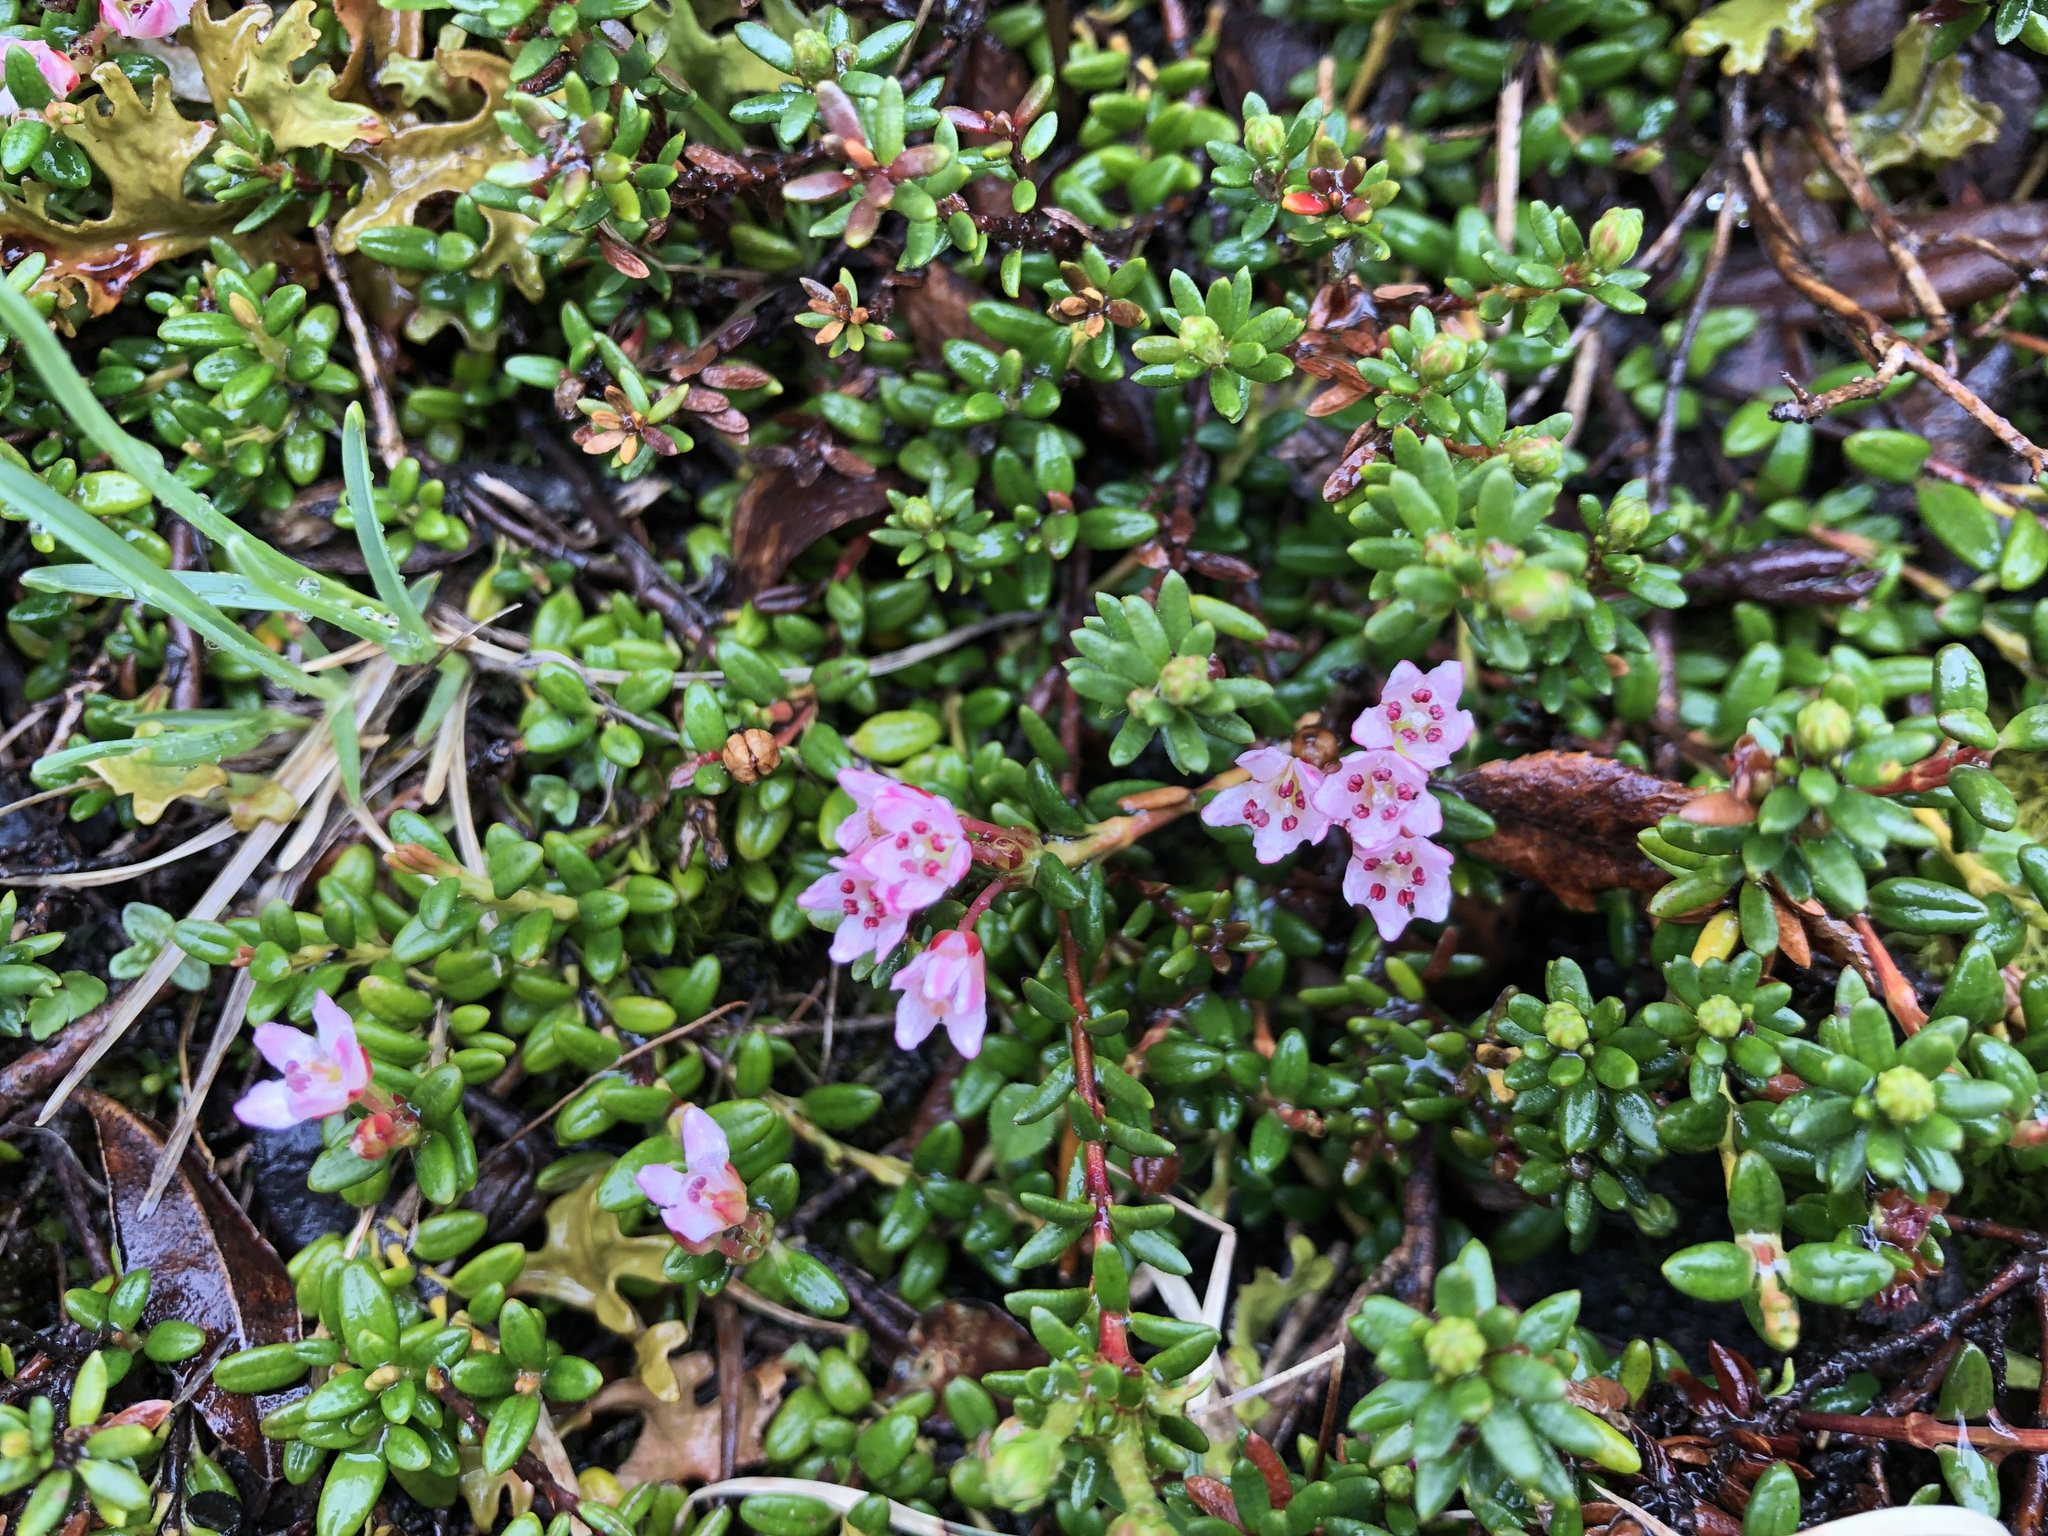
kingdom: Plantae
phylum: Tracheophyta
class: Magnoliopsida
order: Ericales
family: Ericaceae
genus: Kalmia
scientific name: Kalmia procumbens
